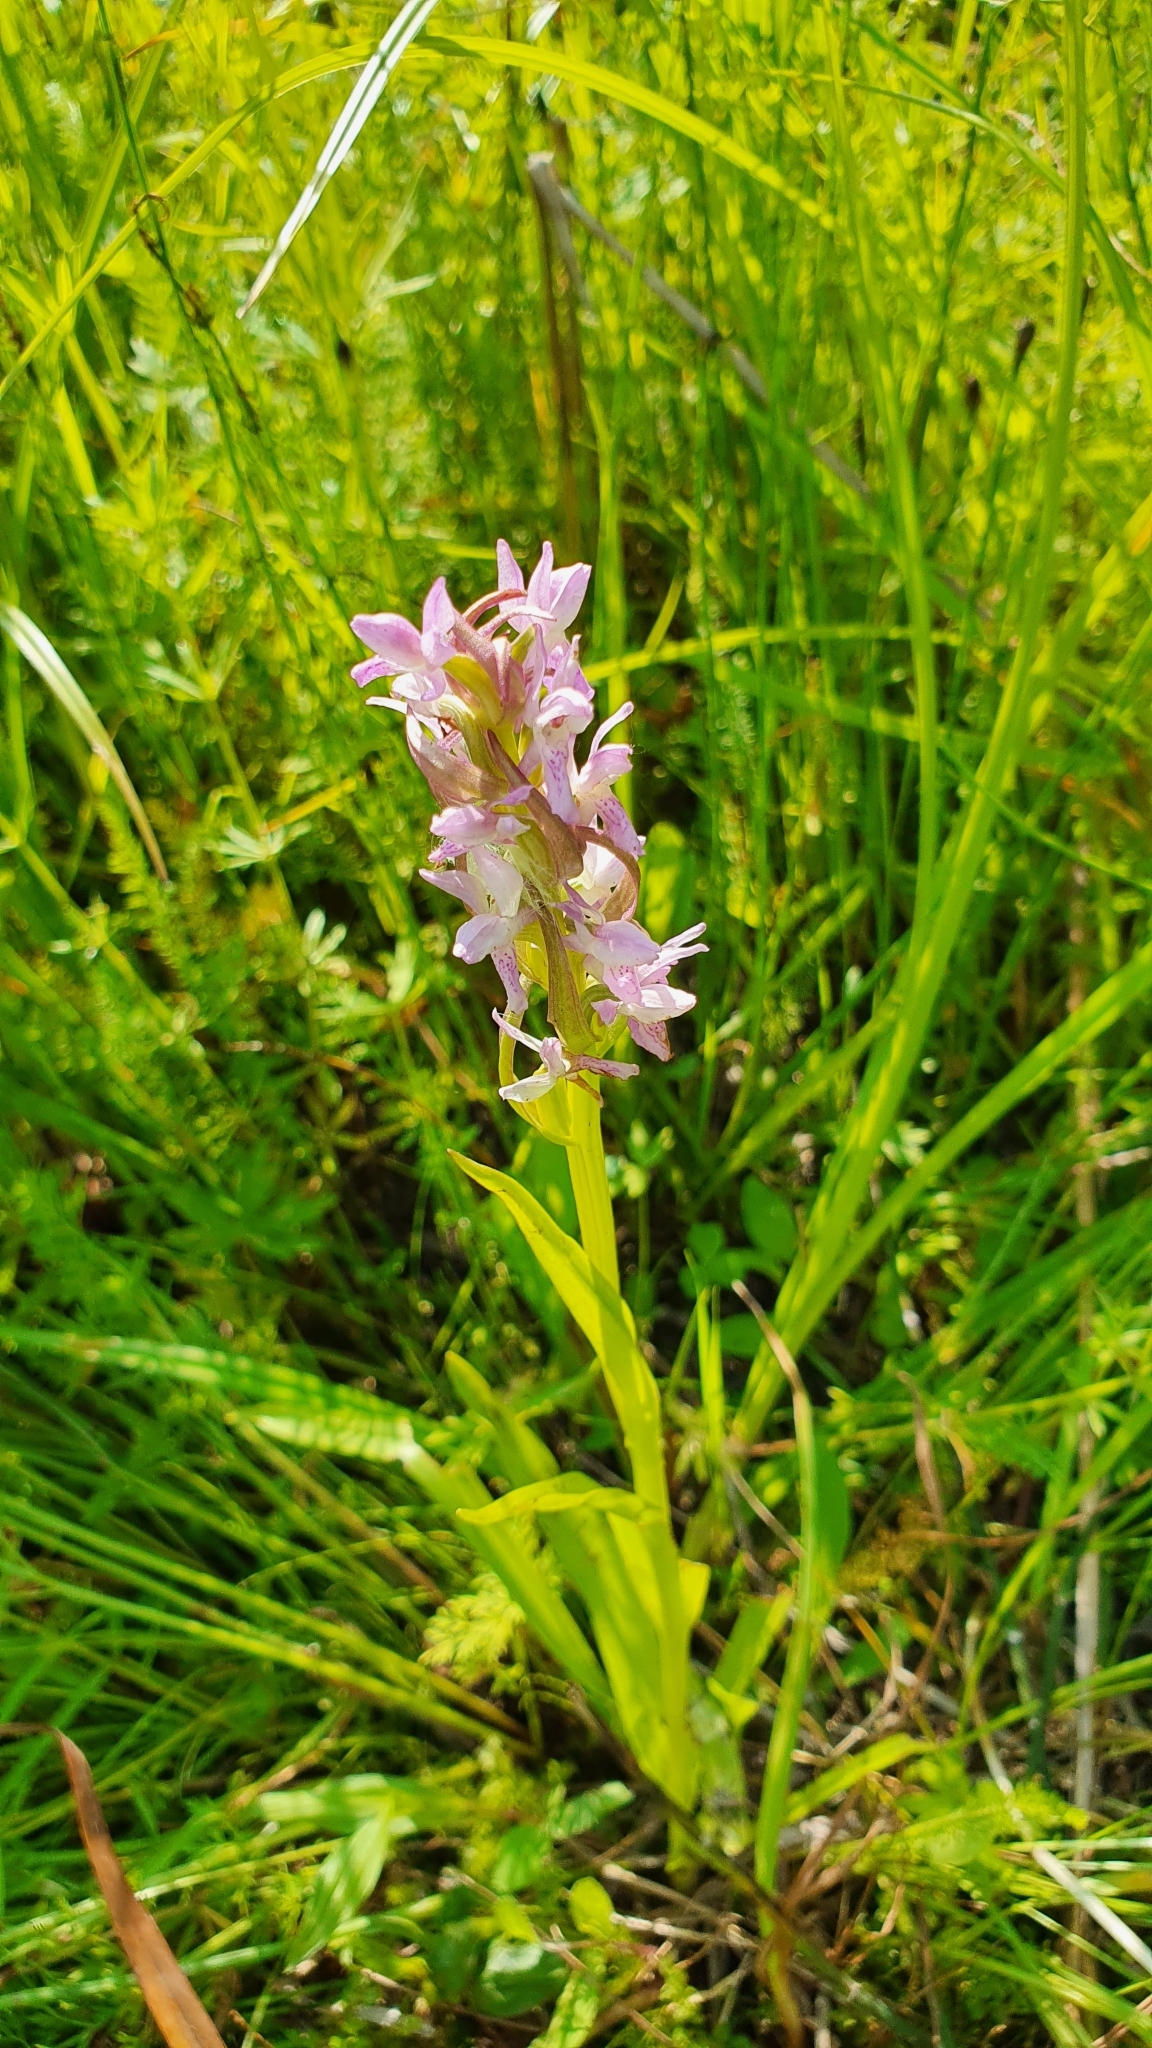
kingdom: Plantae
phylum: Tracheophyta
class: Liliopsida
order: Asparagales
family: Orchidaceae
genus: Dactylorhiza
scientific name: Dactylorhiza incarnata
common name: Early marsh-orchid
